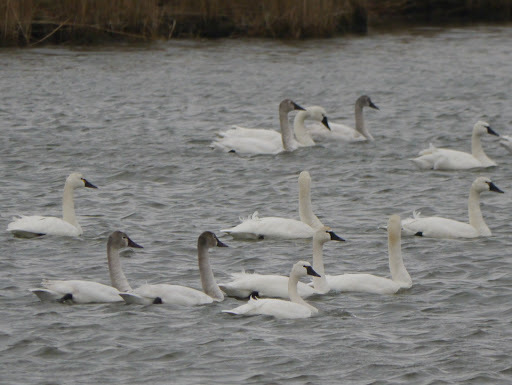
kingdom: Animalia
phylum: Chordata
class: Aves
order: Anseriformes
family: Anatidae
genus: Cygnus
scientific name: Cygnus columbianus
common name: Tundra swan
